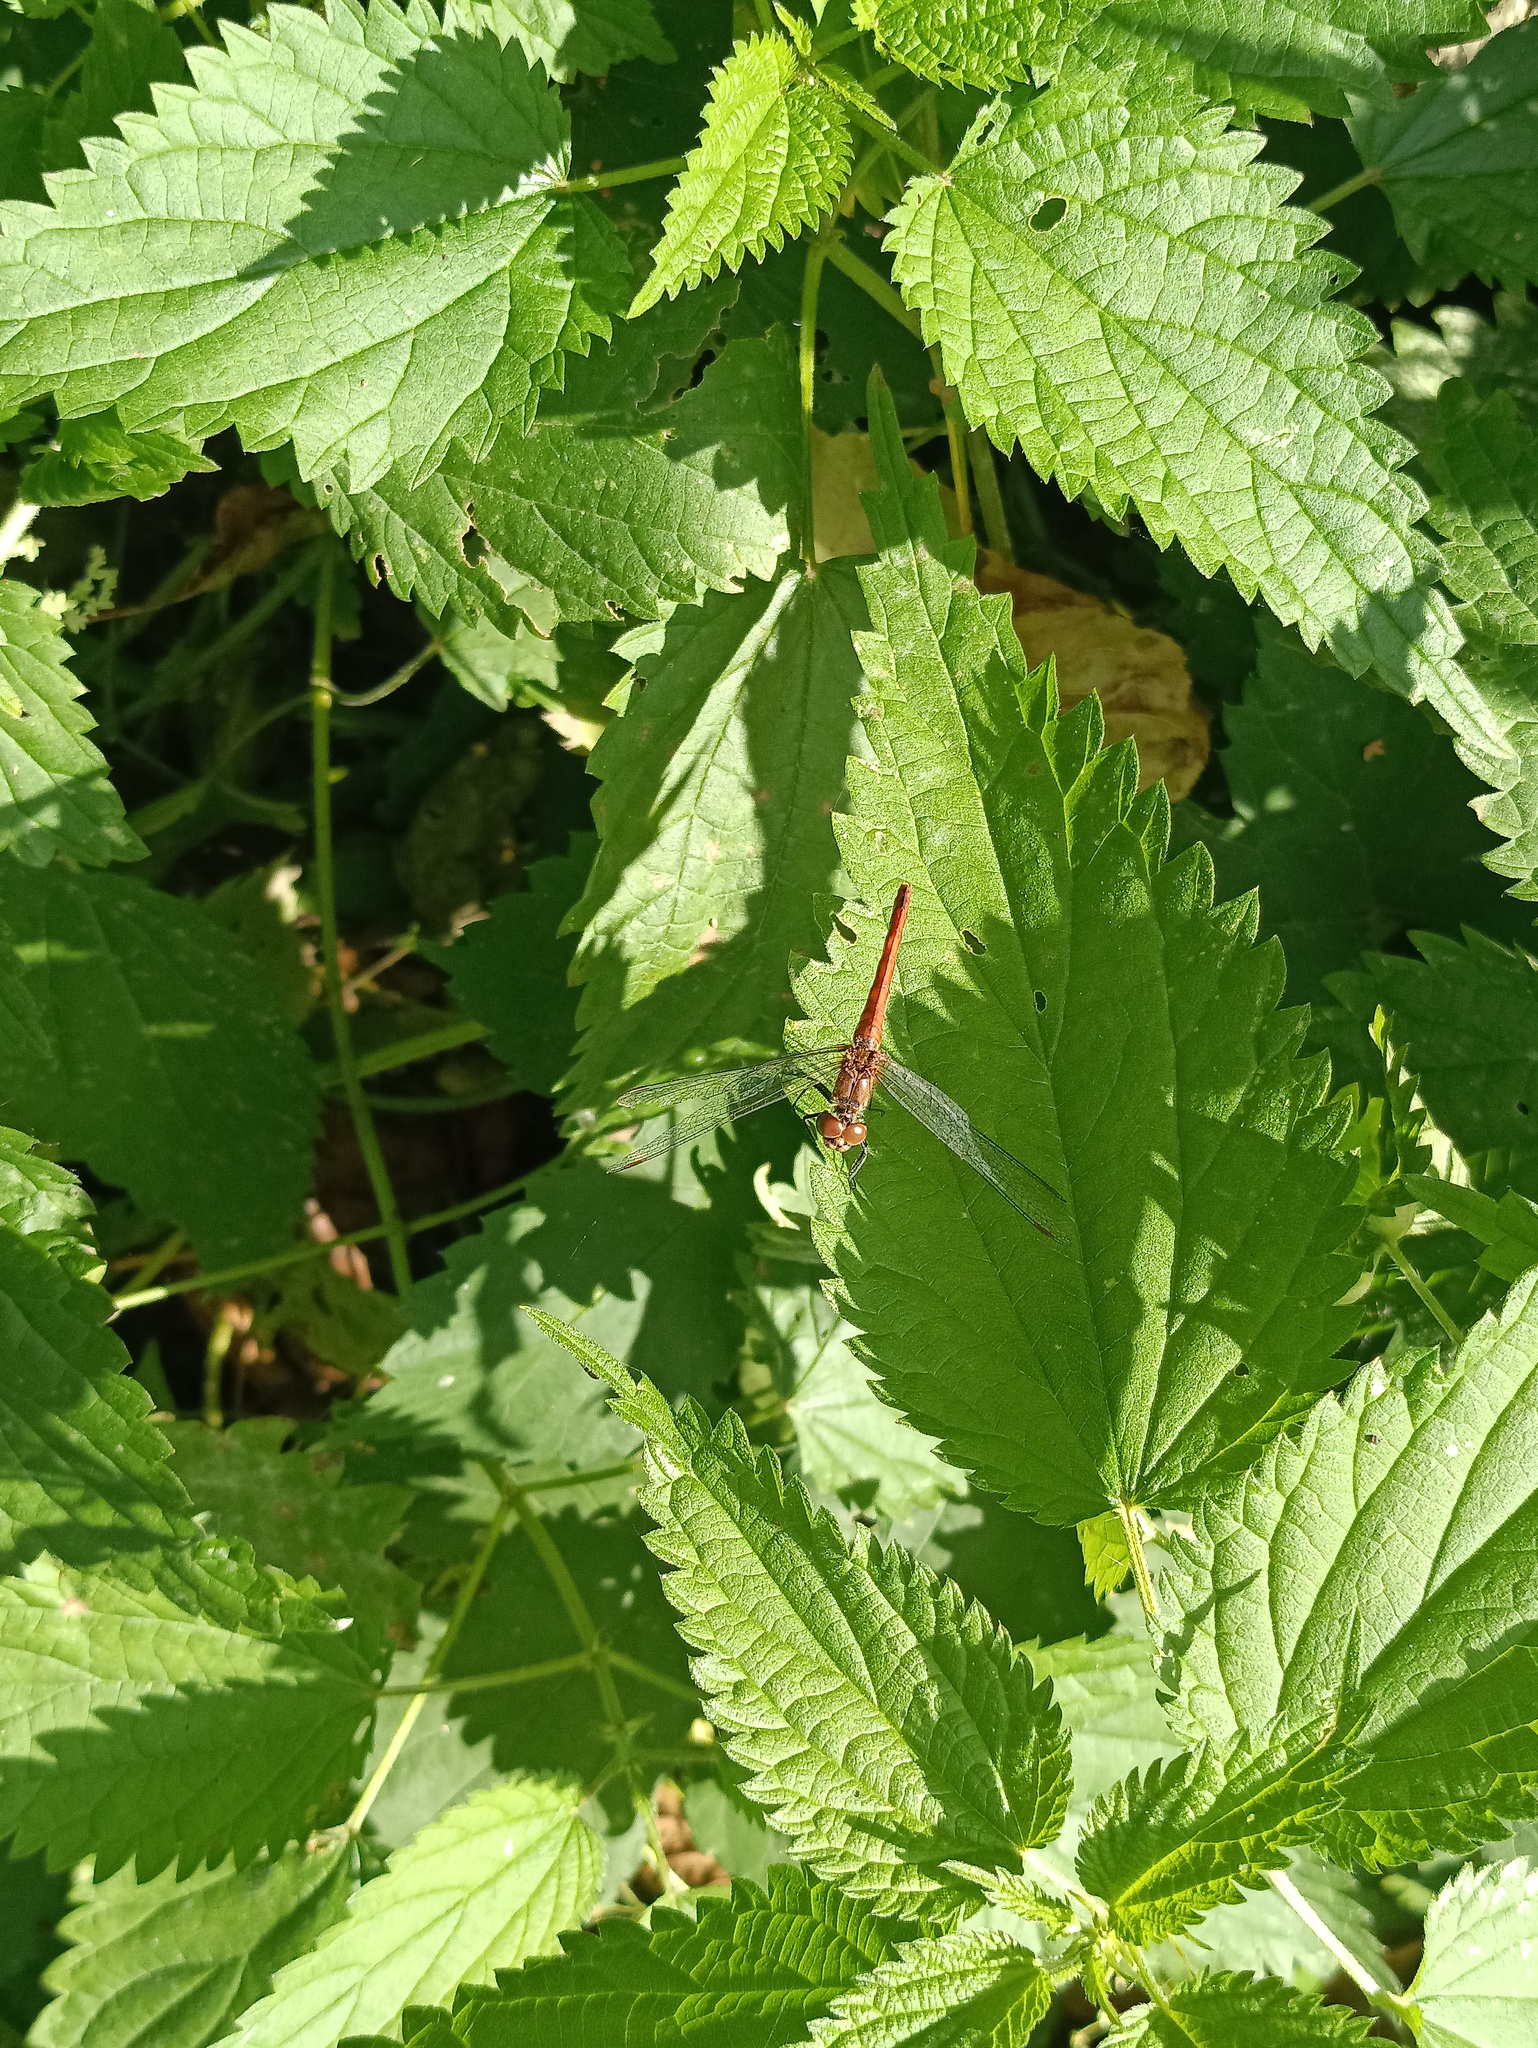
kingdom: Animalia
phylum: Arthropoda
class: Insecta
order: Odonata
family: Libellulidae
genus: Sympetrum
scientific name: Sympetrum sanguineum
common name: Ruddy darter
